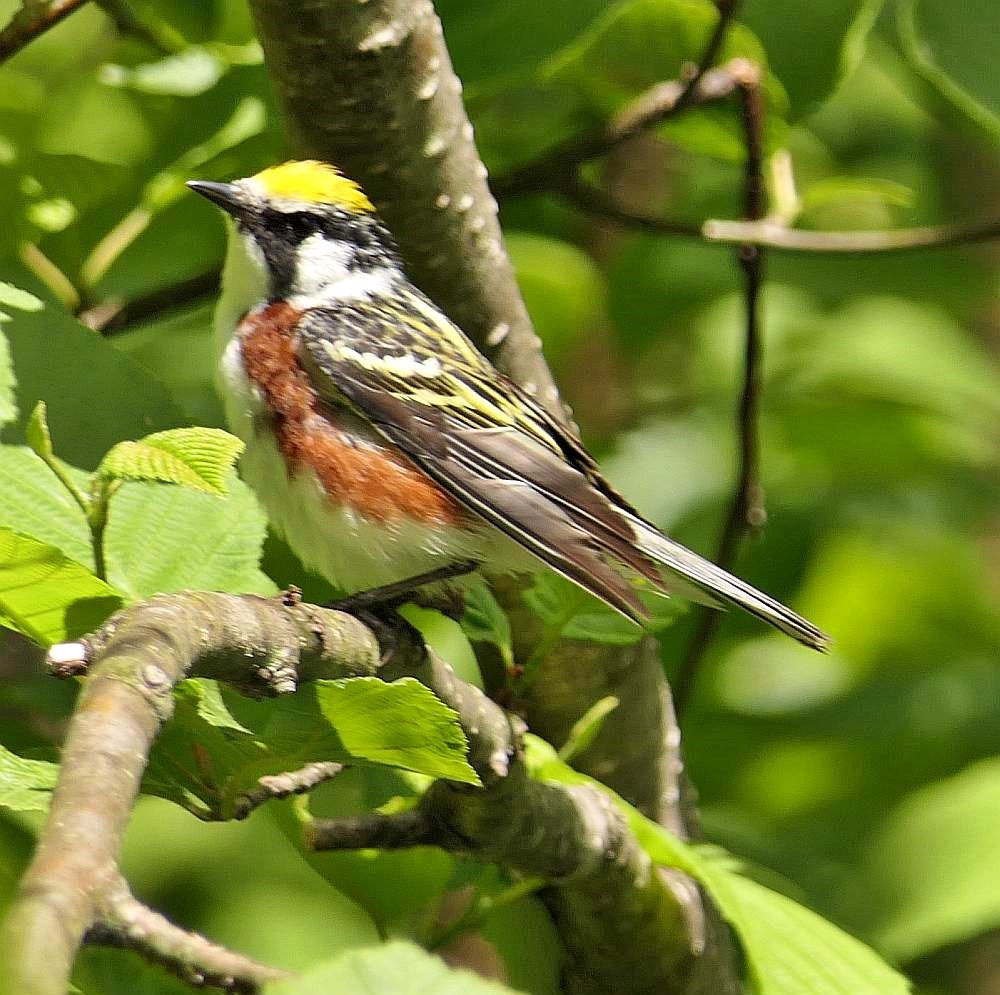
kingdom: Animalia
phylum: Chordata
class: Aves
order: Passeriformes
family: Parulidae
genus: Setophaga
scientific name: Setophaga pensylvanica
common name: Chestnut-sided warbler
